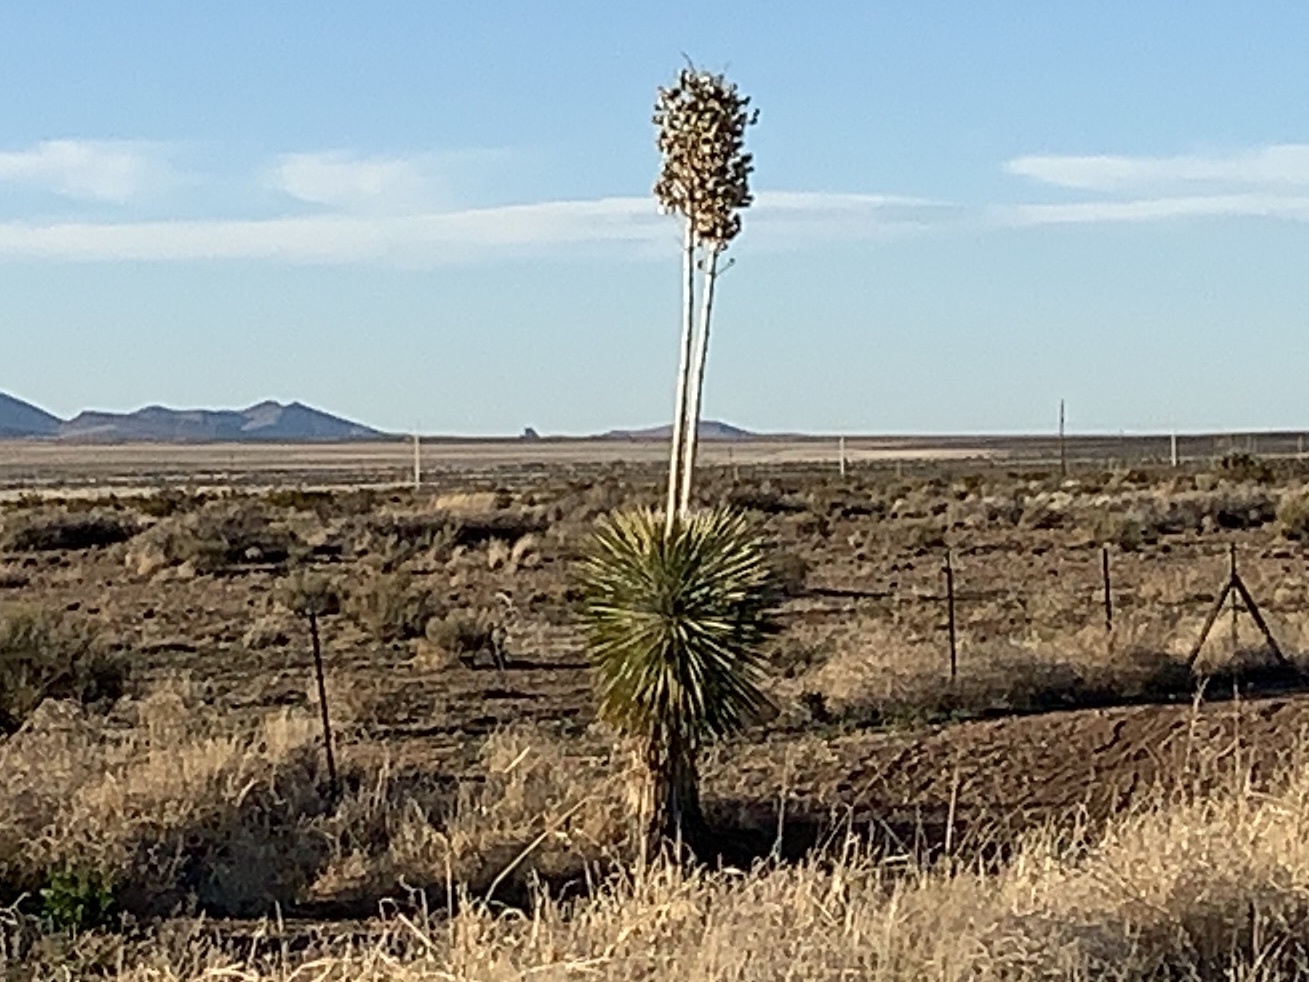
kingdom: Plantae
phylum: Tracheophyta
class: Liliopsida
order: Asparagales
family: Asparagaceae
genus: Yucca
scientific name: Yucca elata
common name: Palmella
